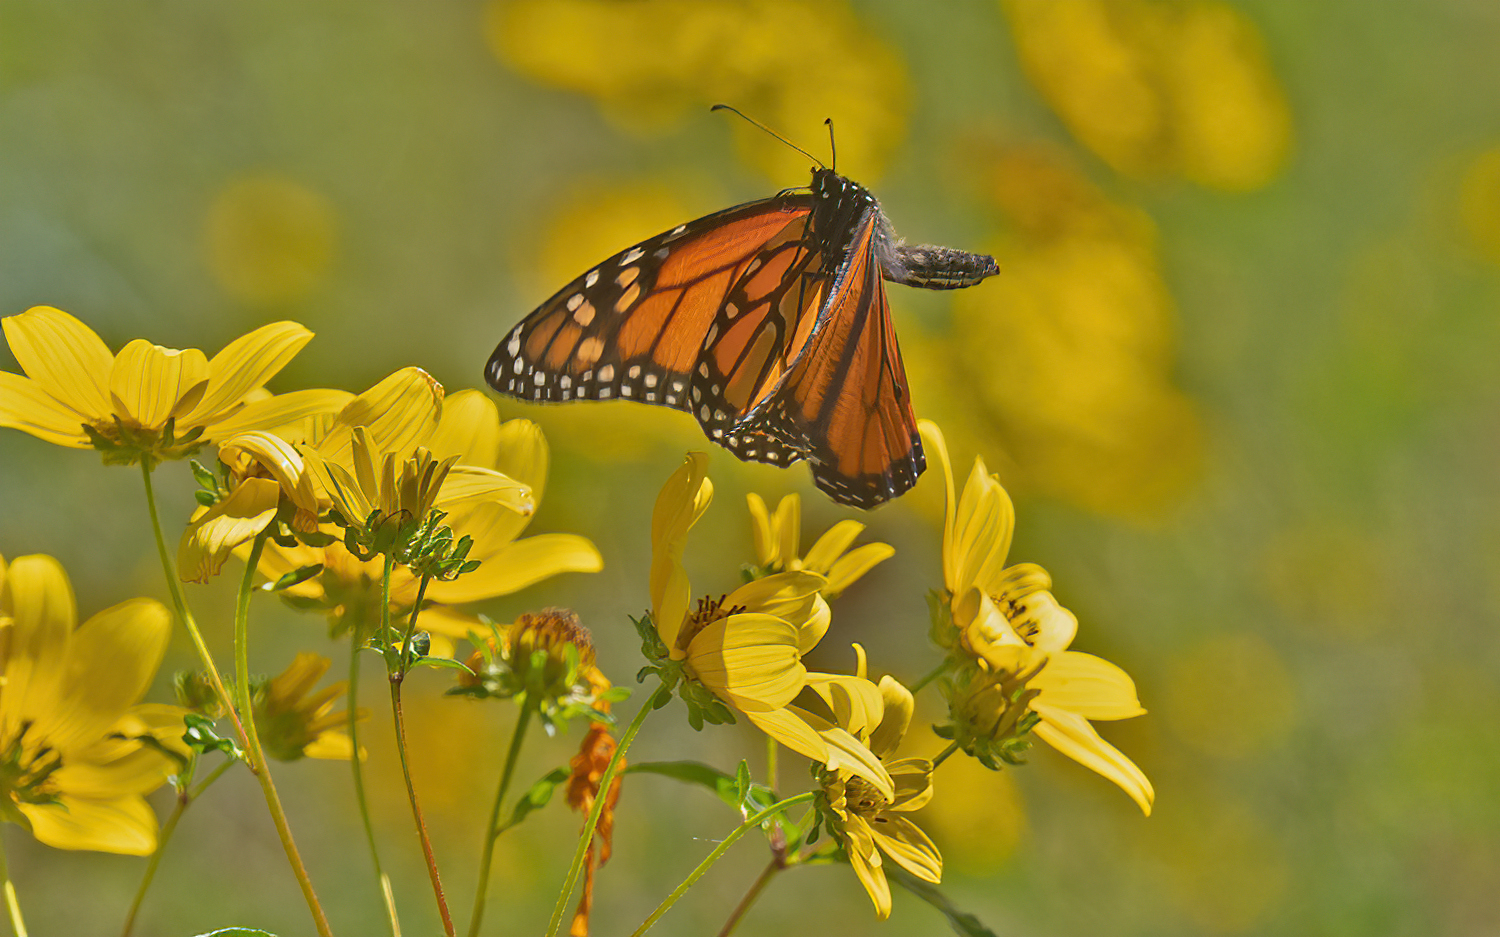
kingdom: Animalia
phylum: Arthropoda
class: Insecta
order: Lepidoptera
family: Nymphalidae
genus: Danaus
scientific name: Danaus plexippus
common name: Monarch
